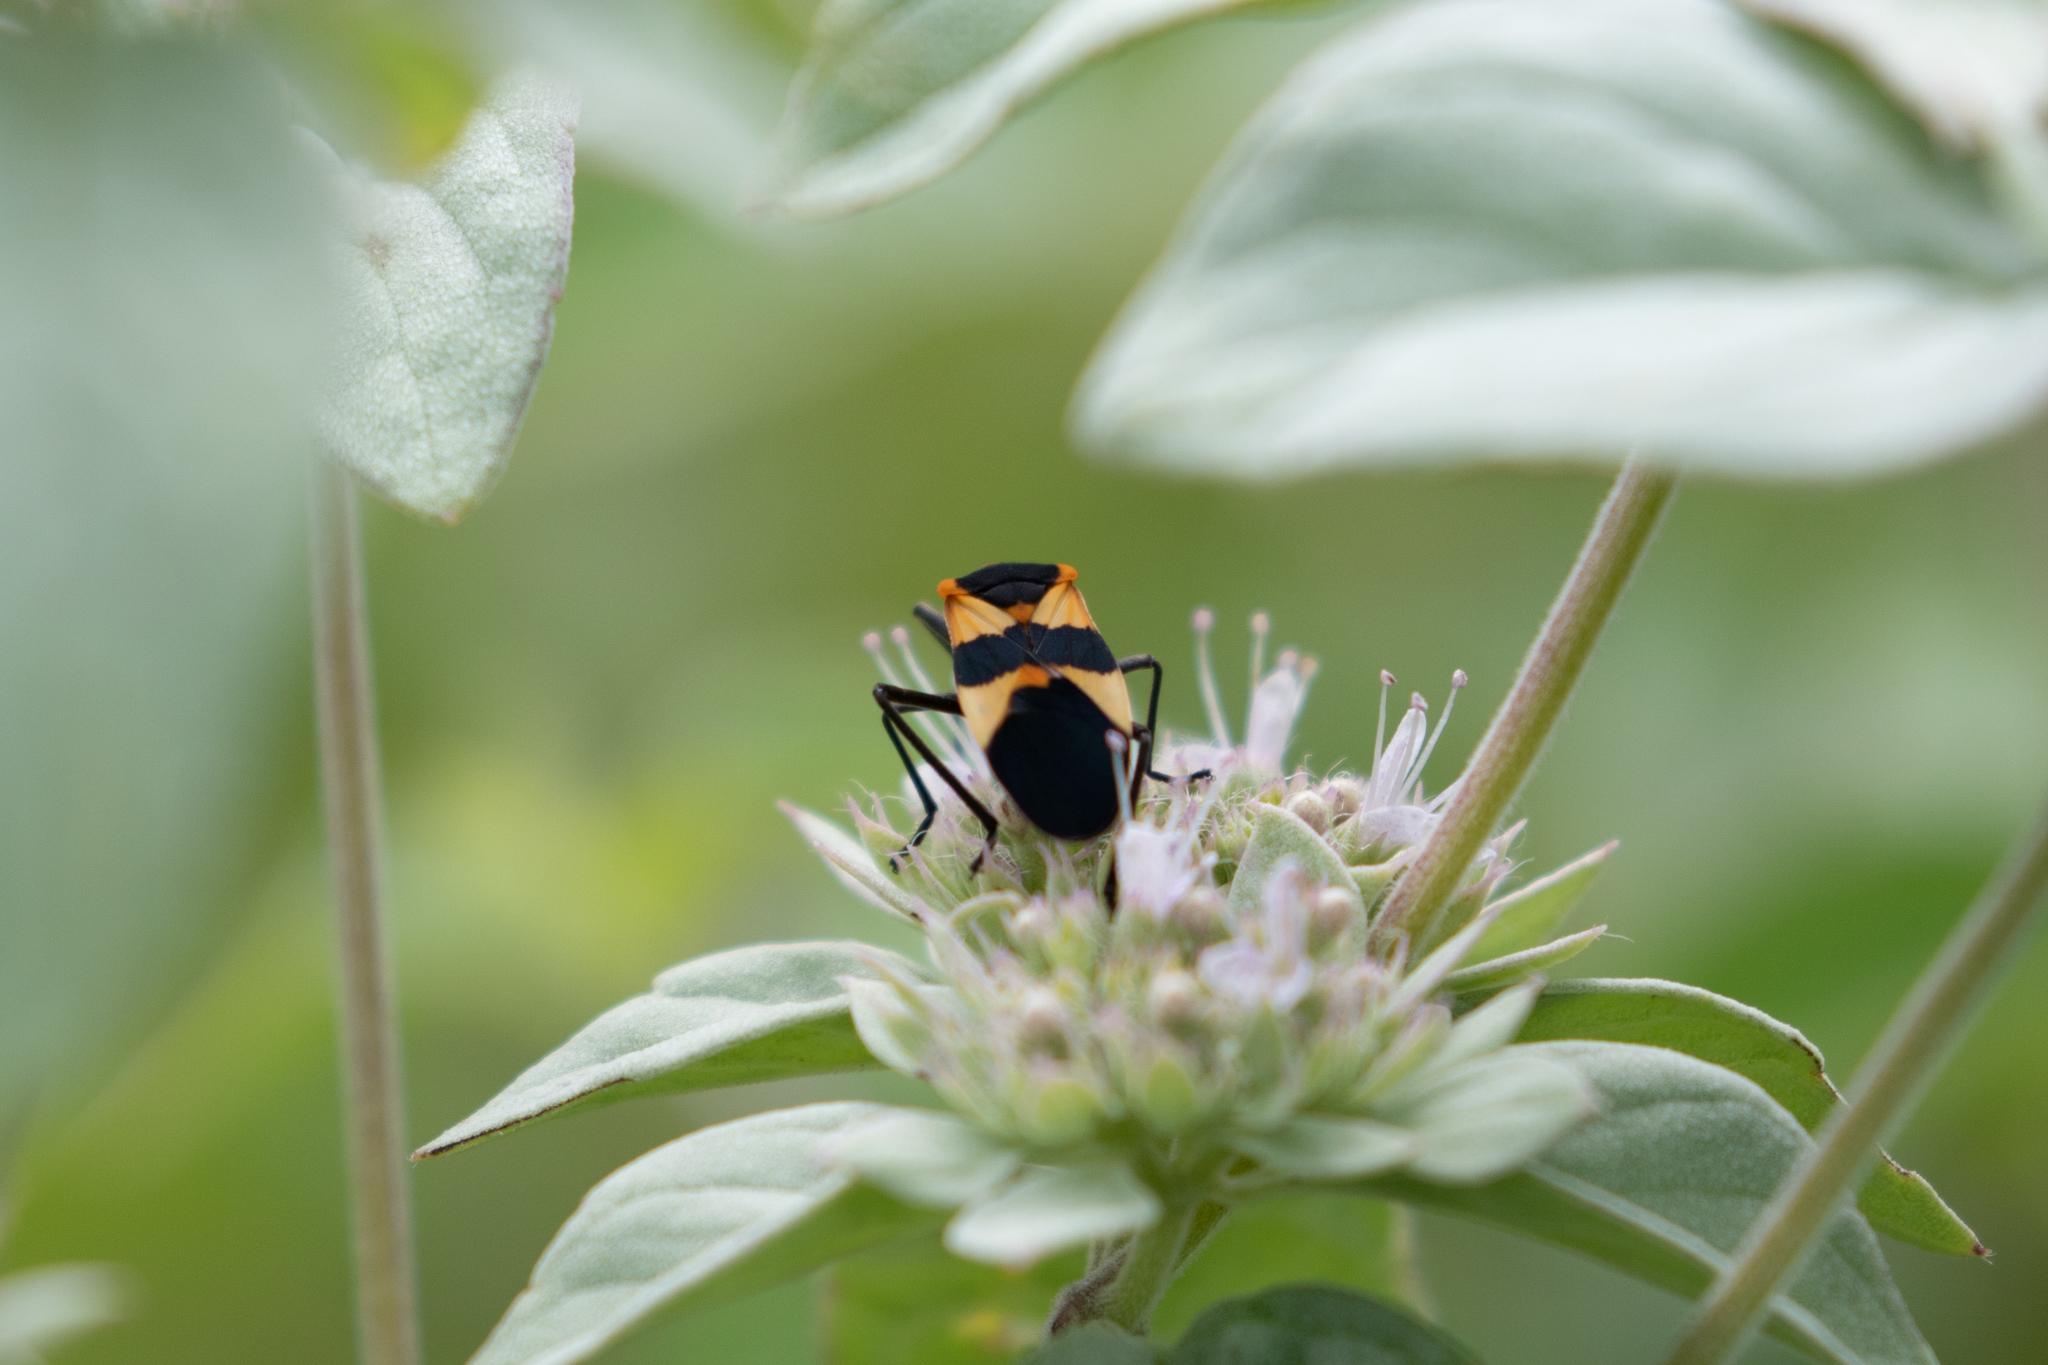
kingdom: Animalia
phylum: Arthropoda
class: Insecta
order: Hemiptera
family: Lygaeidae
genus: Oncopeltus
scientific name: Oncopeltus fasciatus
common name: Large milkweed bug
